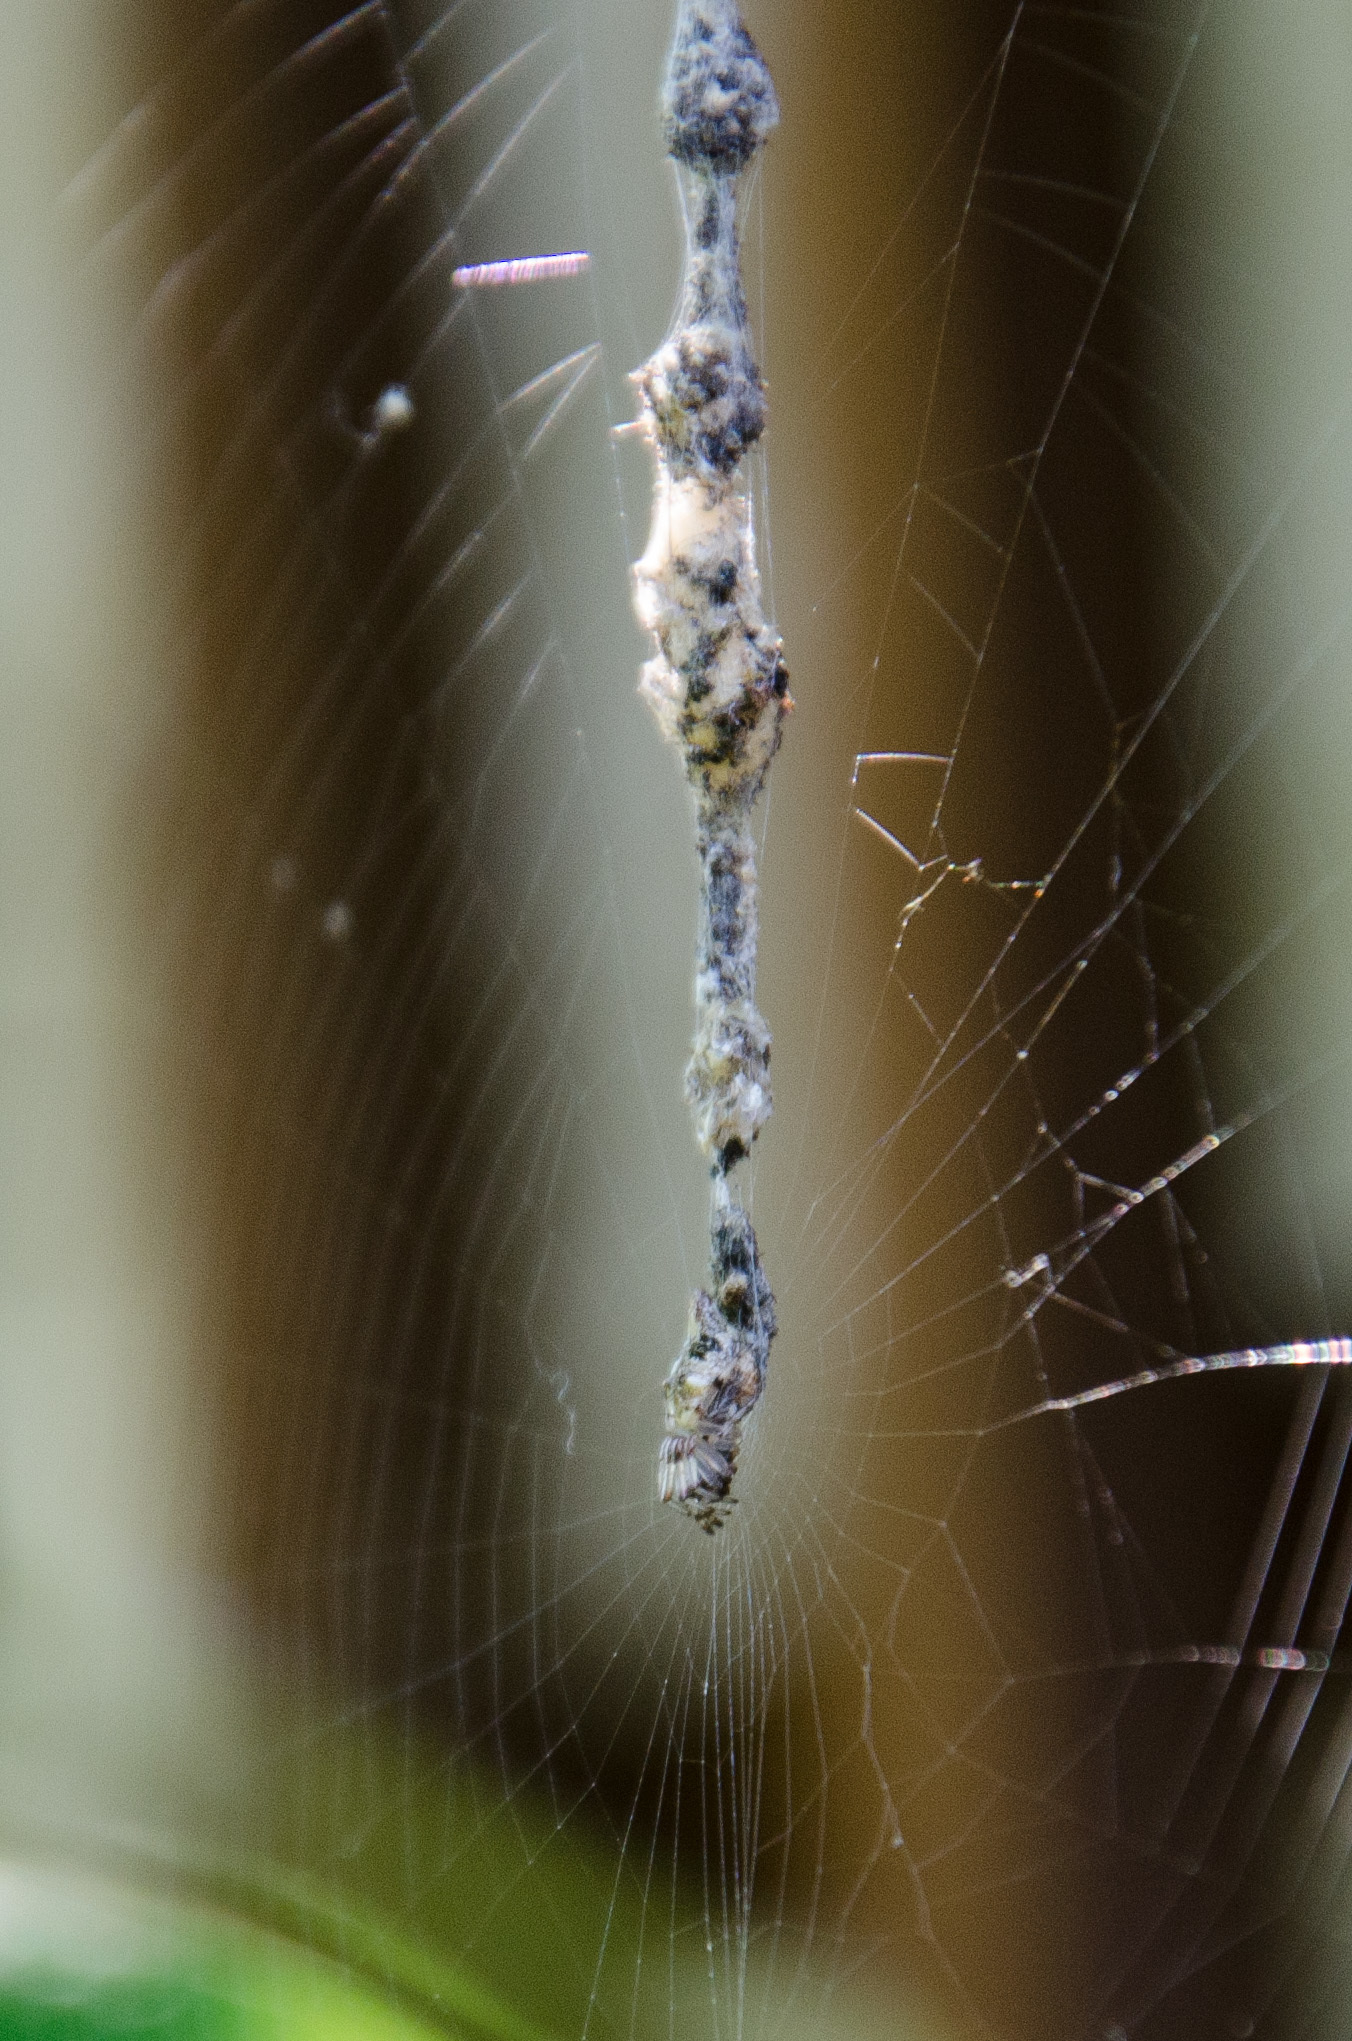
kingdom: Animalia
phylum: Arthropoda
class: Arachnida
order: Araneae
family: Araneidae
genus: Cyclosa
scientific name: Cyclosa turbinata
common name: Orb weavers
